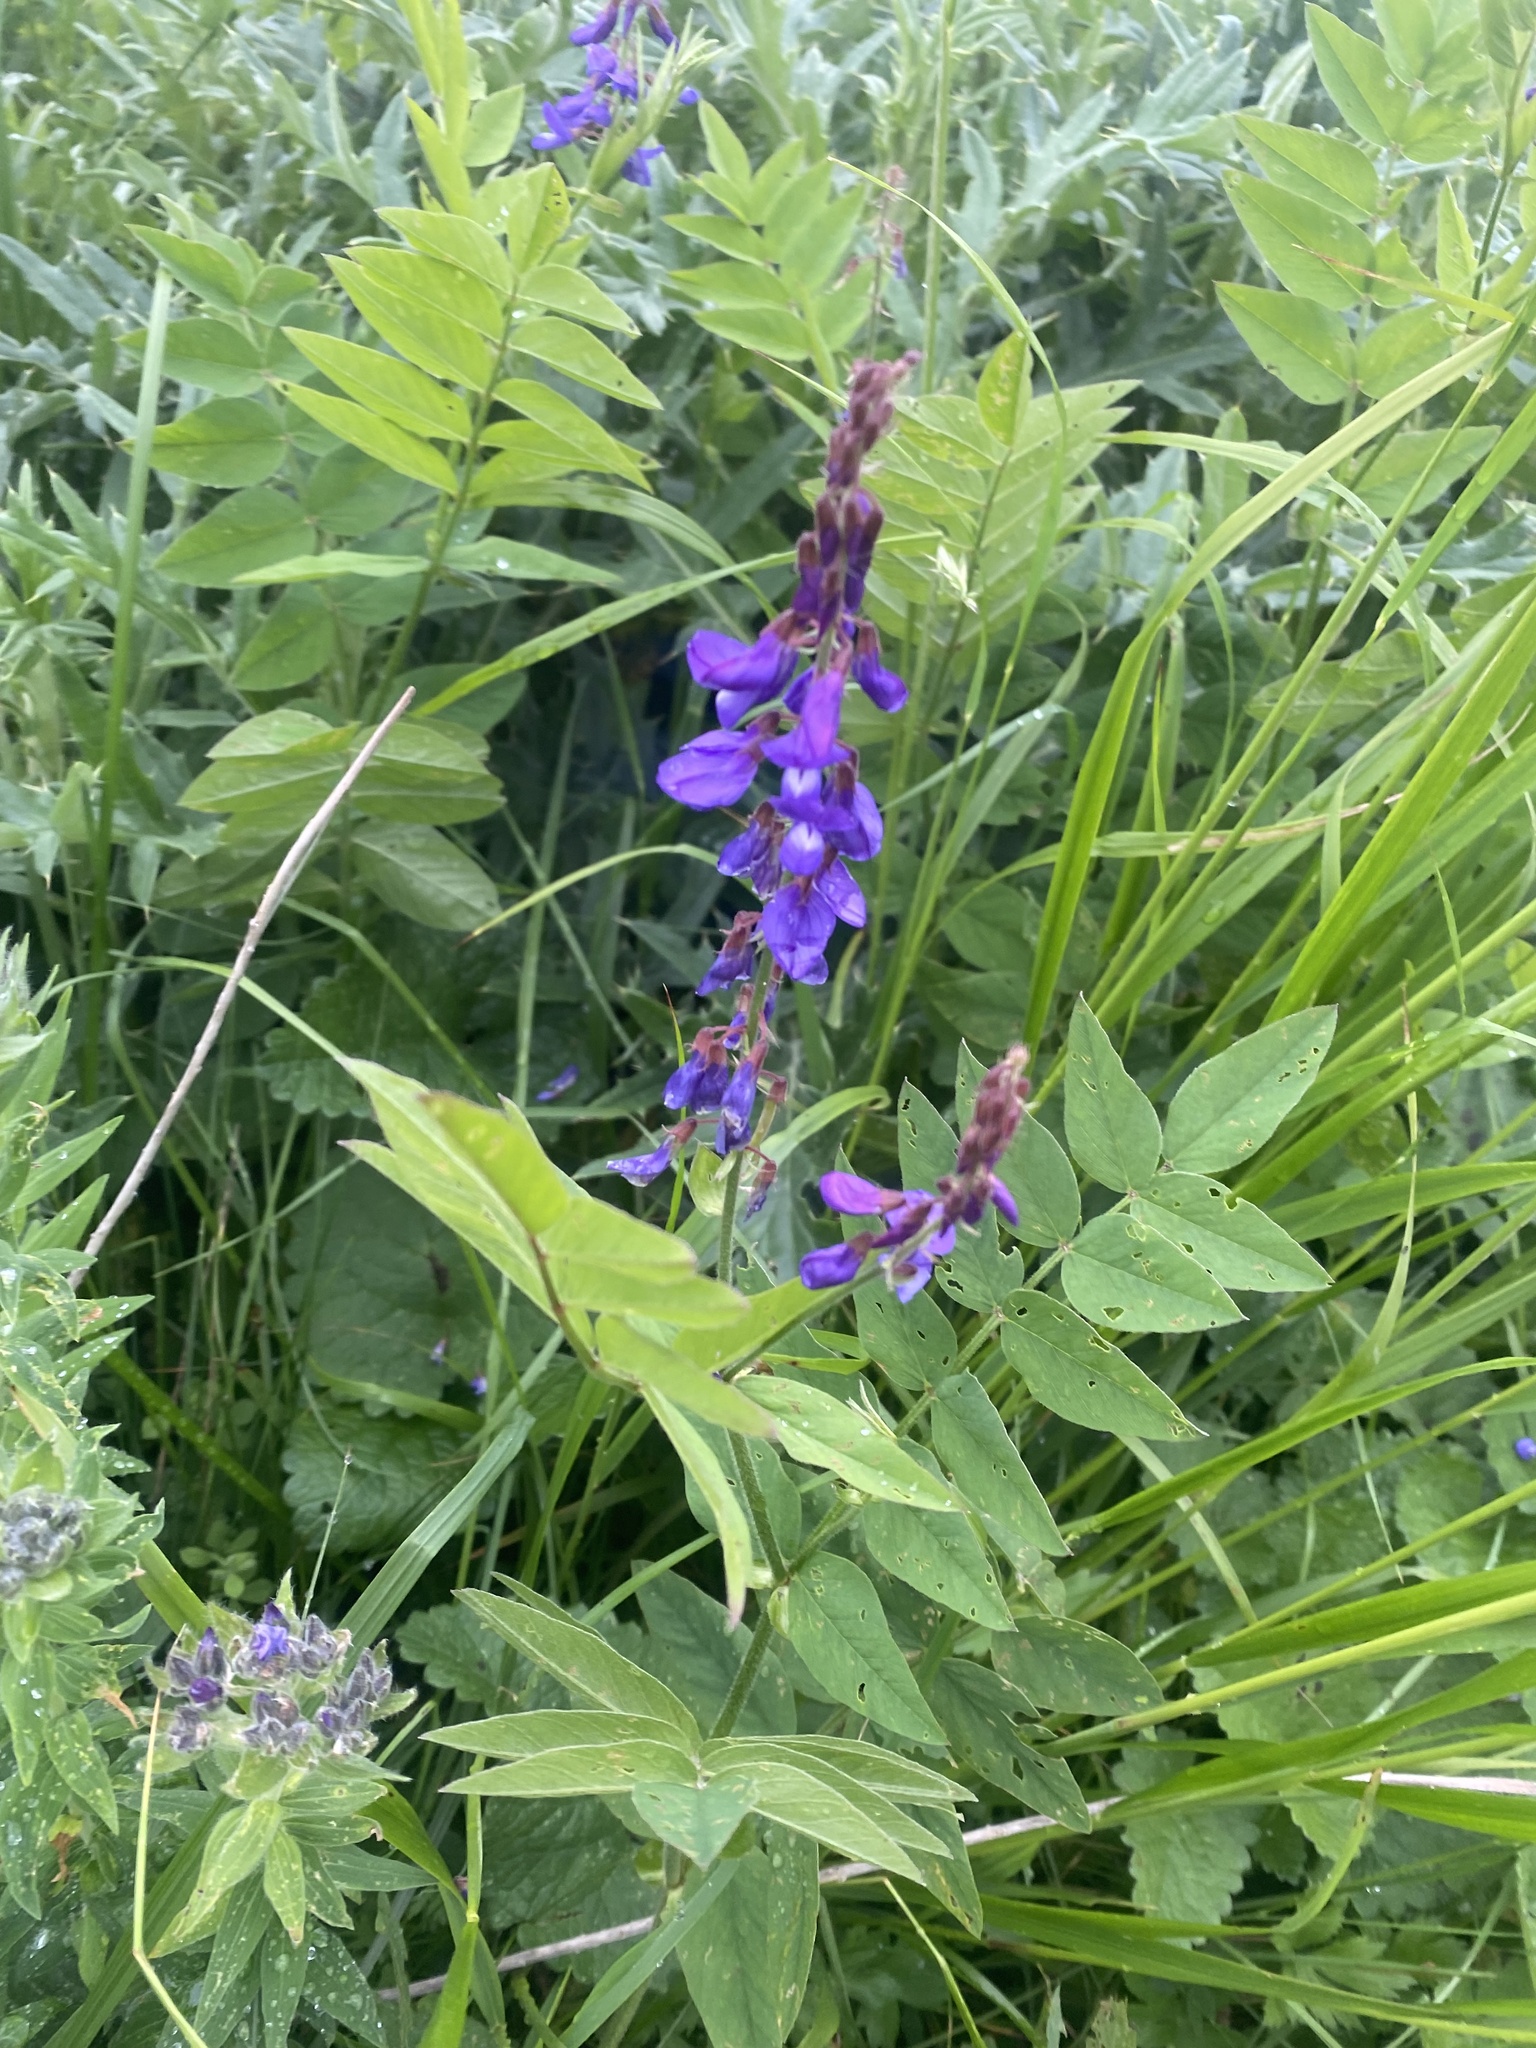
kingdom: Plantae
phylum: Tracheophyta
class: Magnoliopsida
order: Fabales
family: Fabaceae
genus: Galega
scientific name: Galega orientalis
